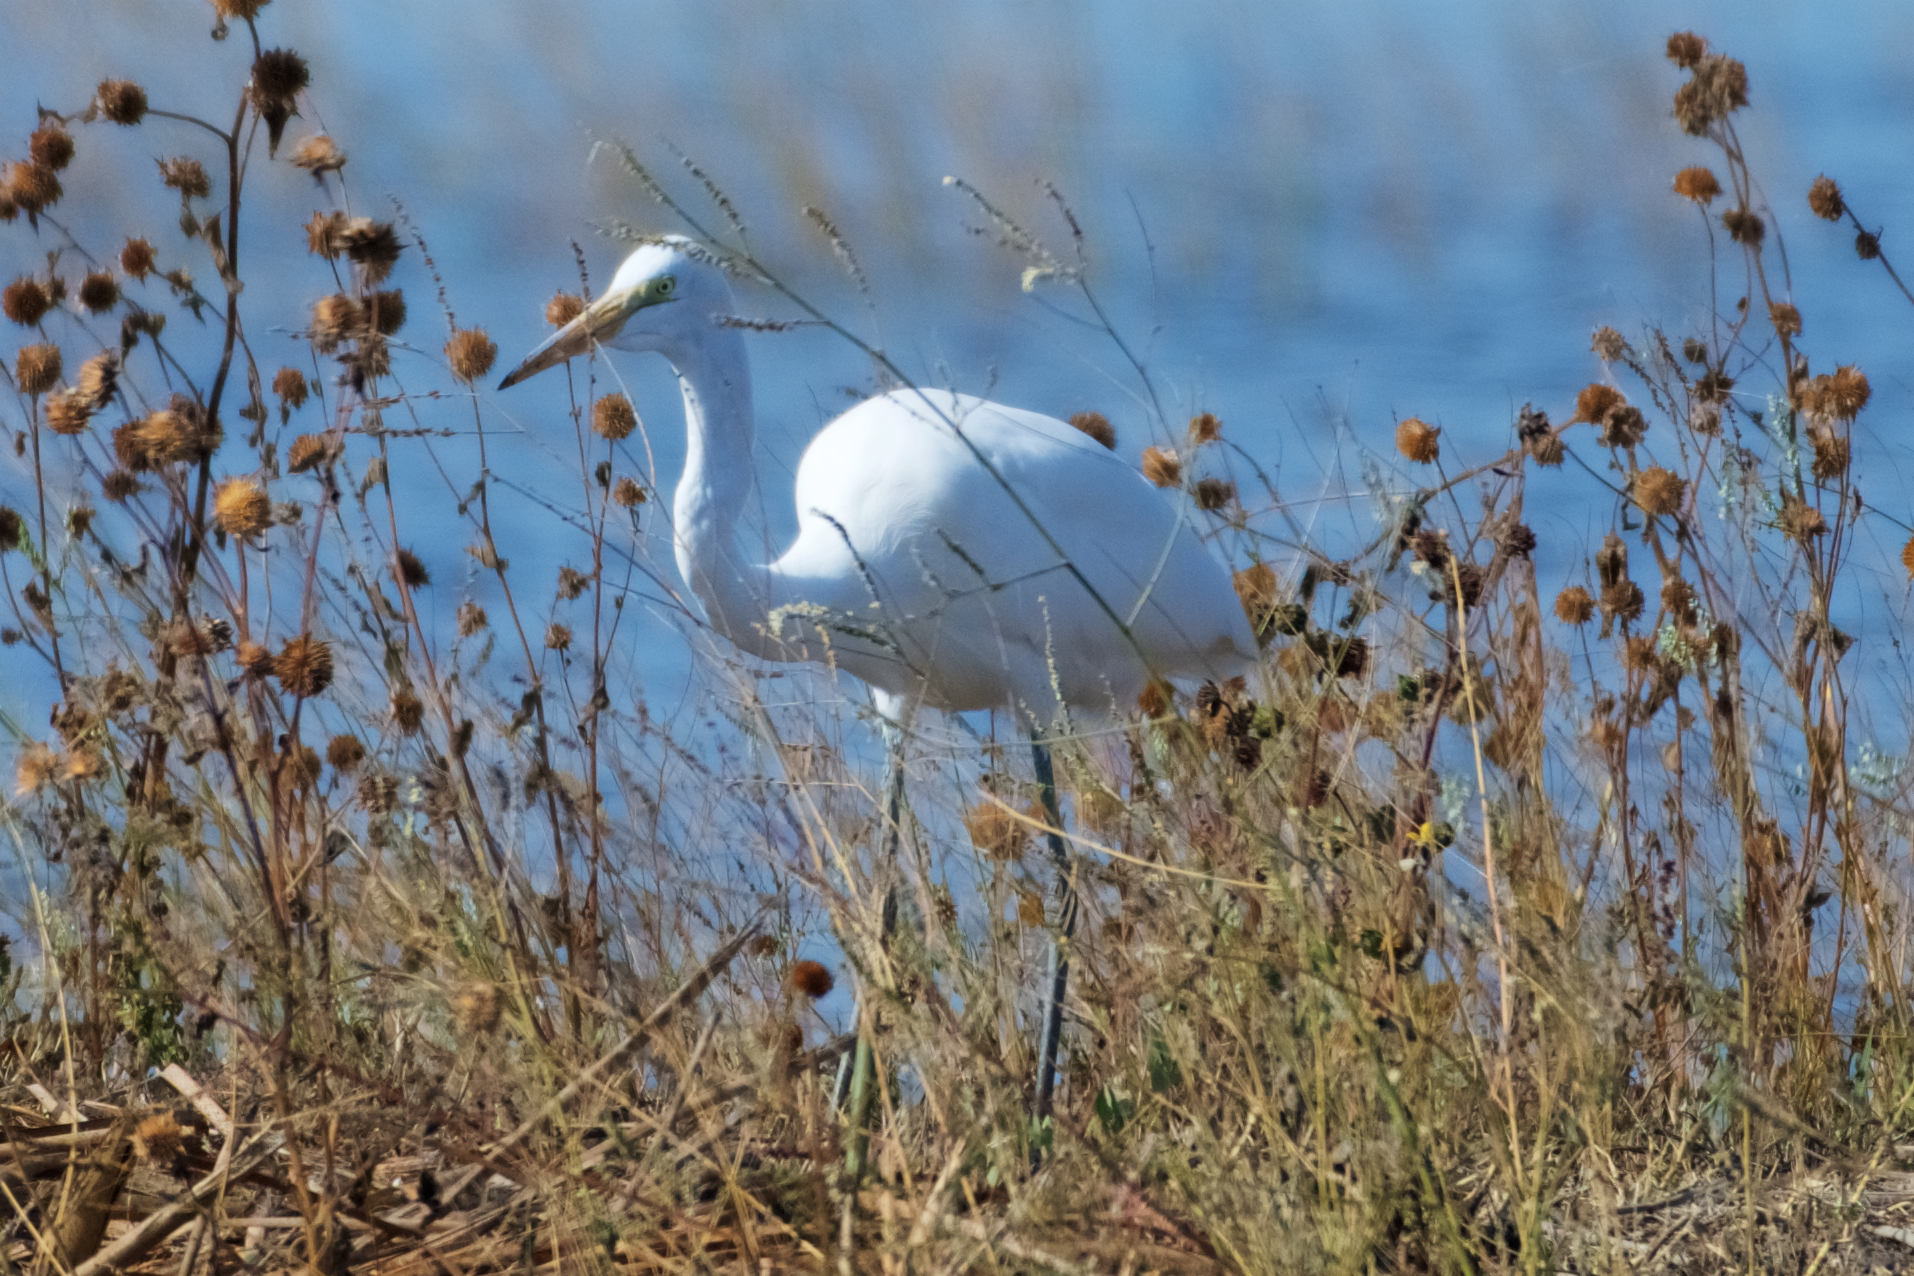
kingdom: Animalia
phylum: Chordata
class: Aves
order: Pelecaniformes
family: Ardeidae
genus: Ardea
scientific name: Ardea alba
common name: Great egret
